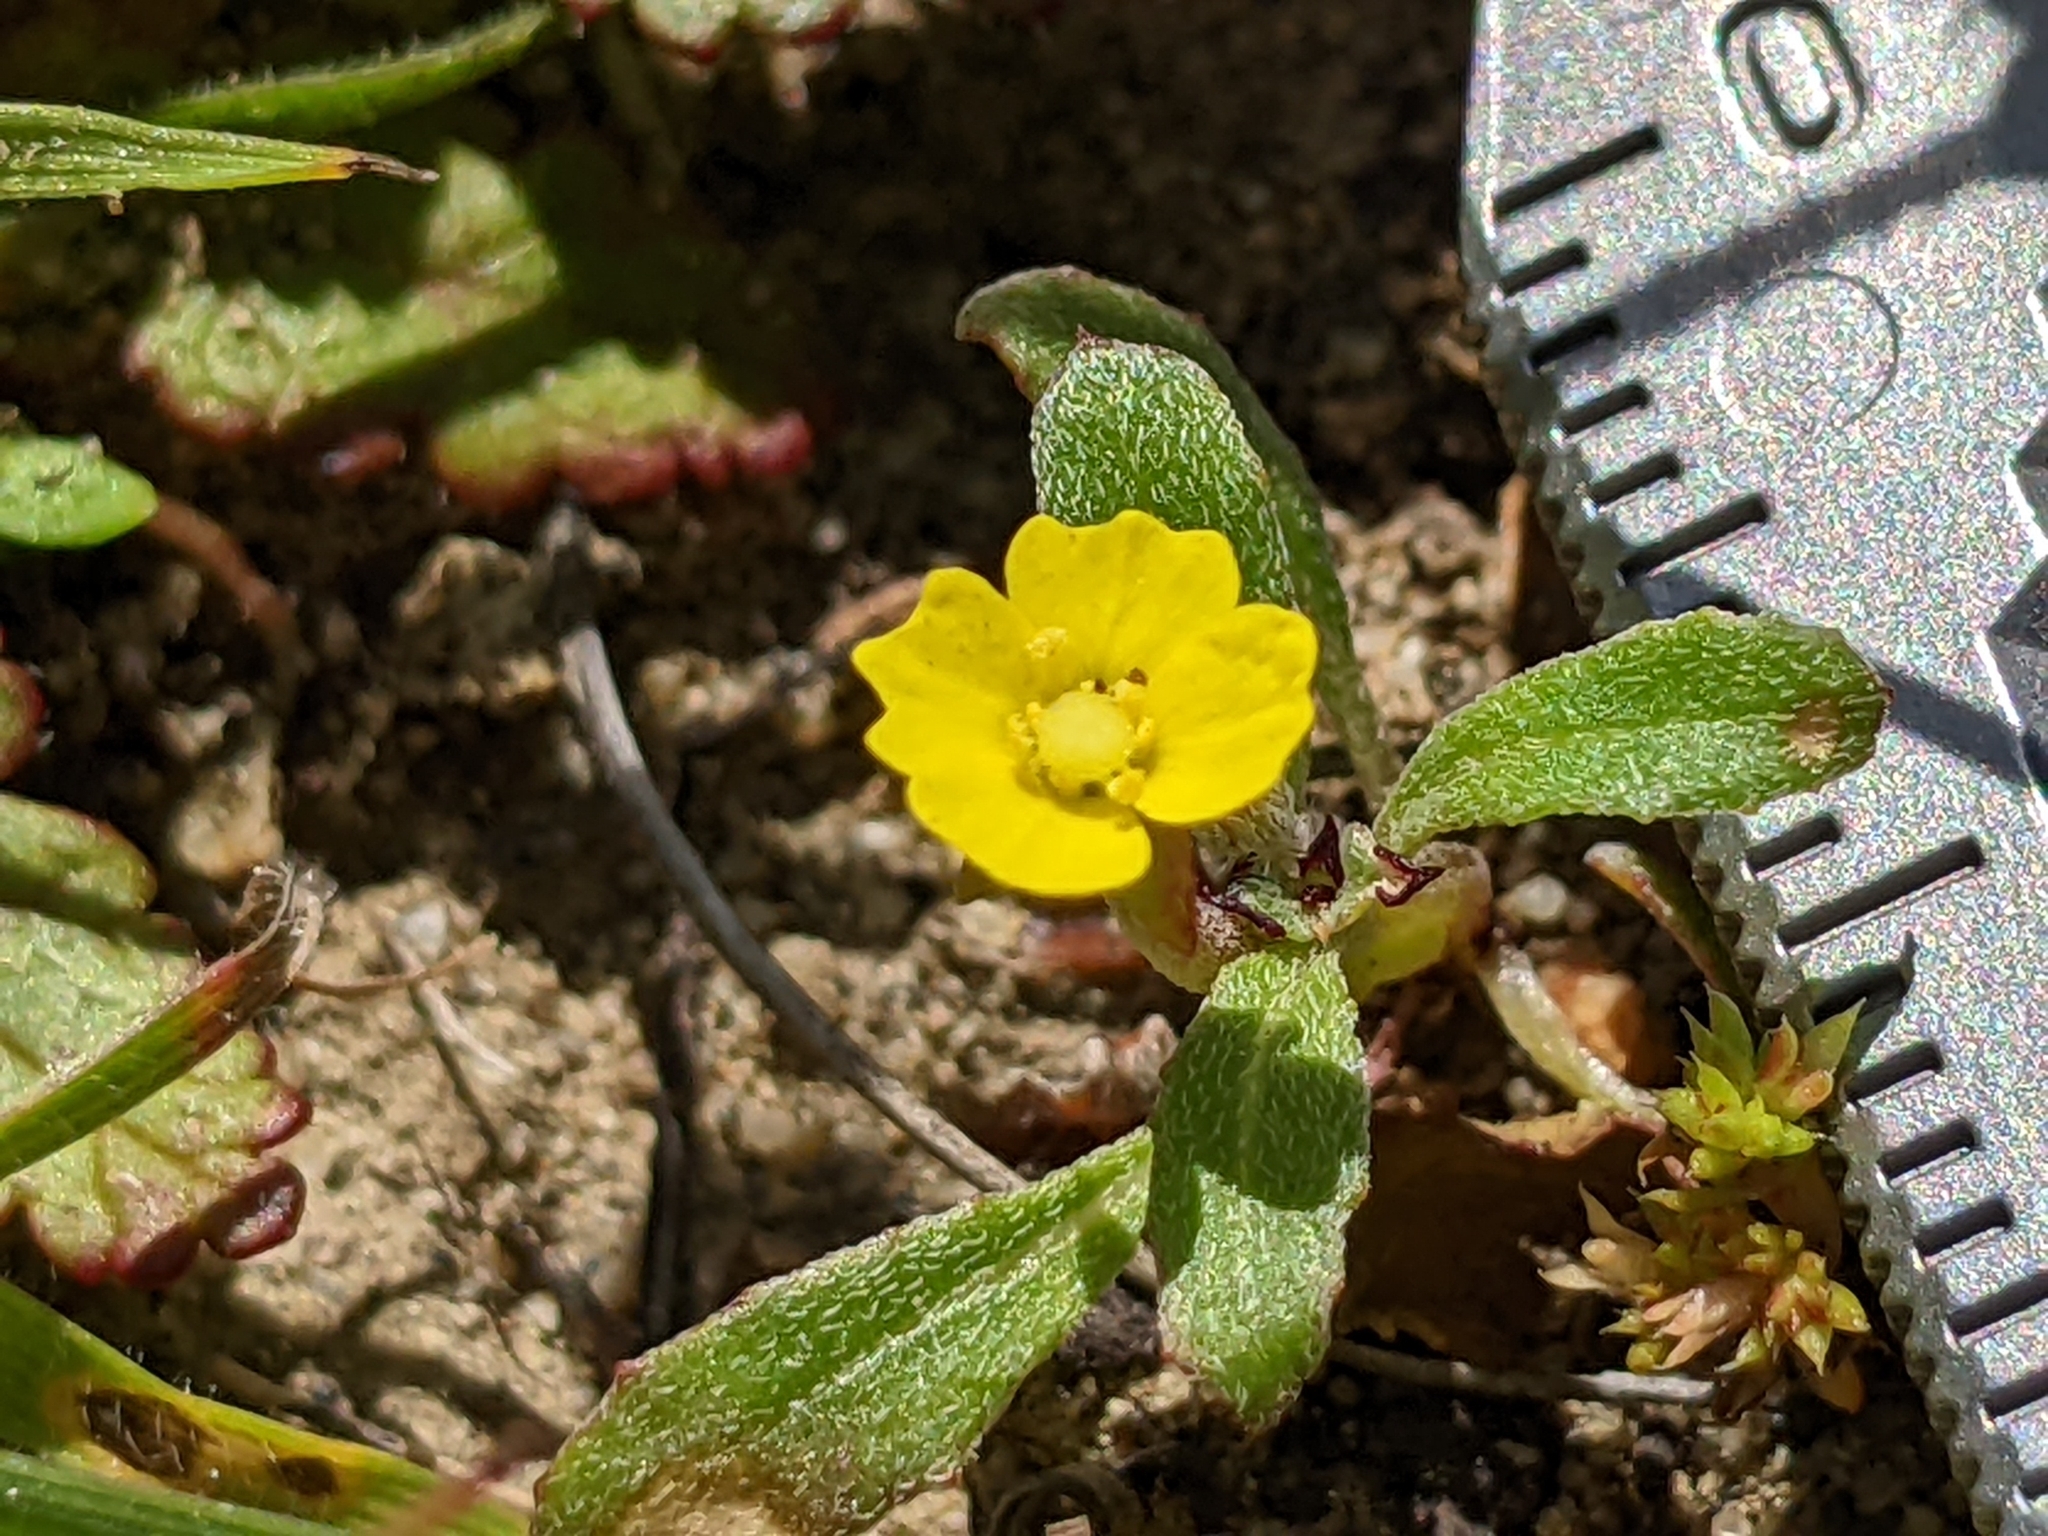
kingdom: Plantae
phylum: Tracheophyta
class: Magnoliopsida
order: Myrtales
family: Onagraceae
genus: Camissoniopsis
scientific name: Camissoniopsis micrantha
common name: Miniature suncup
